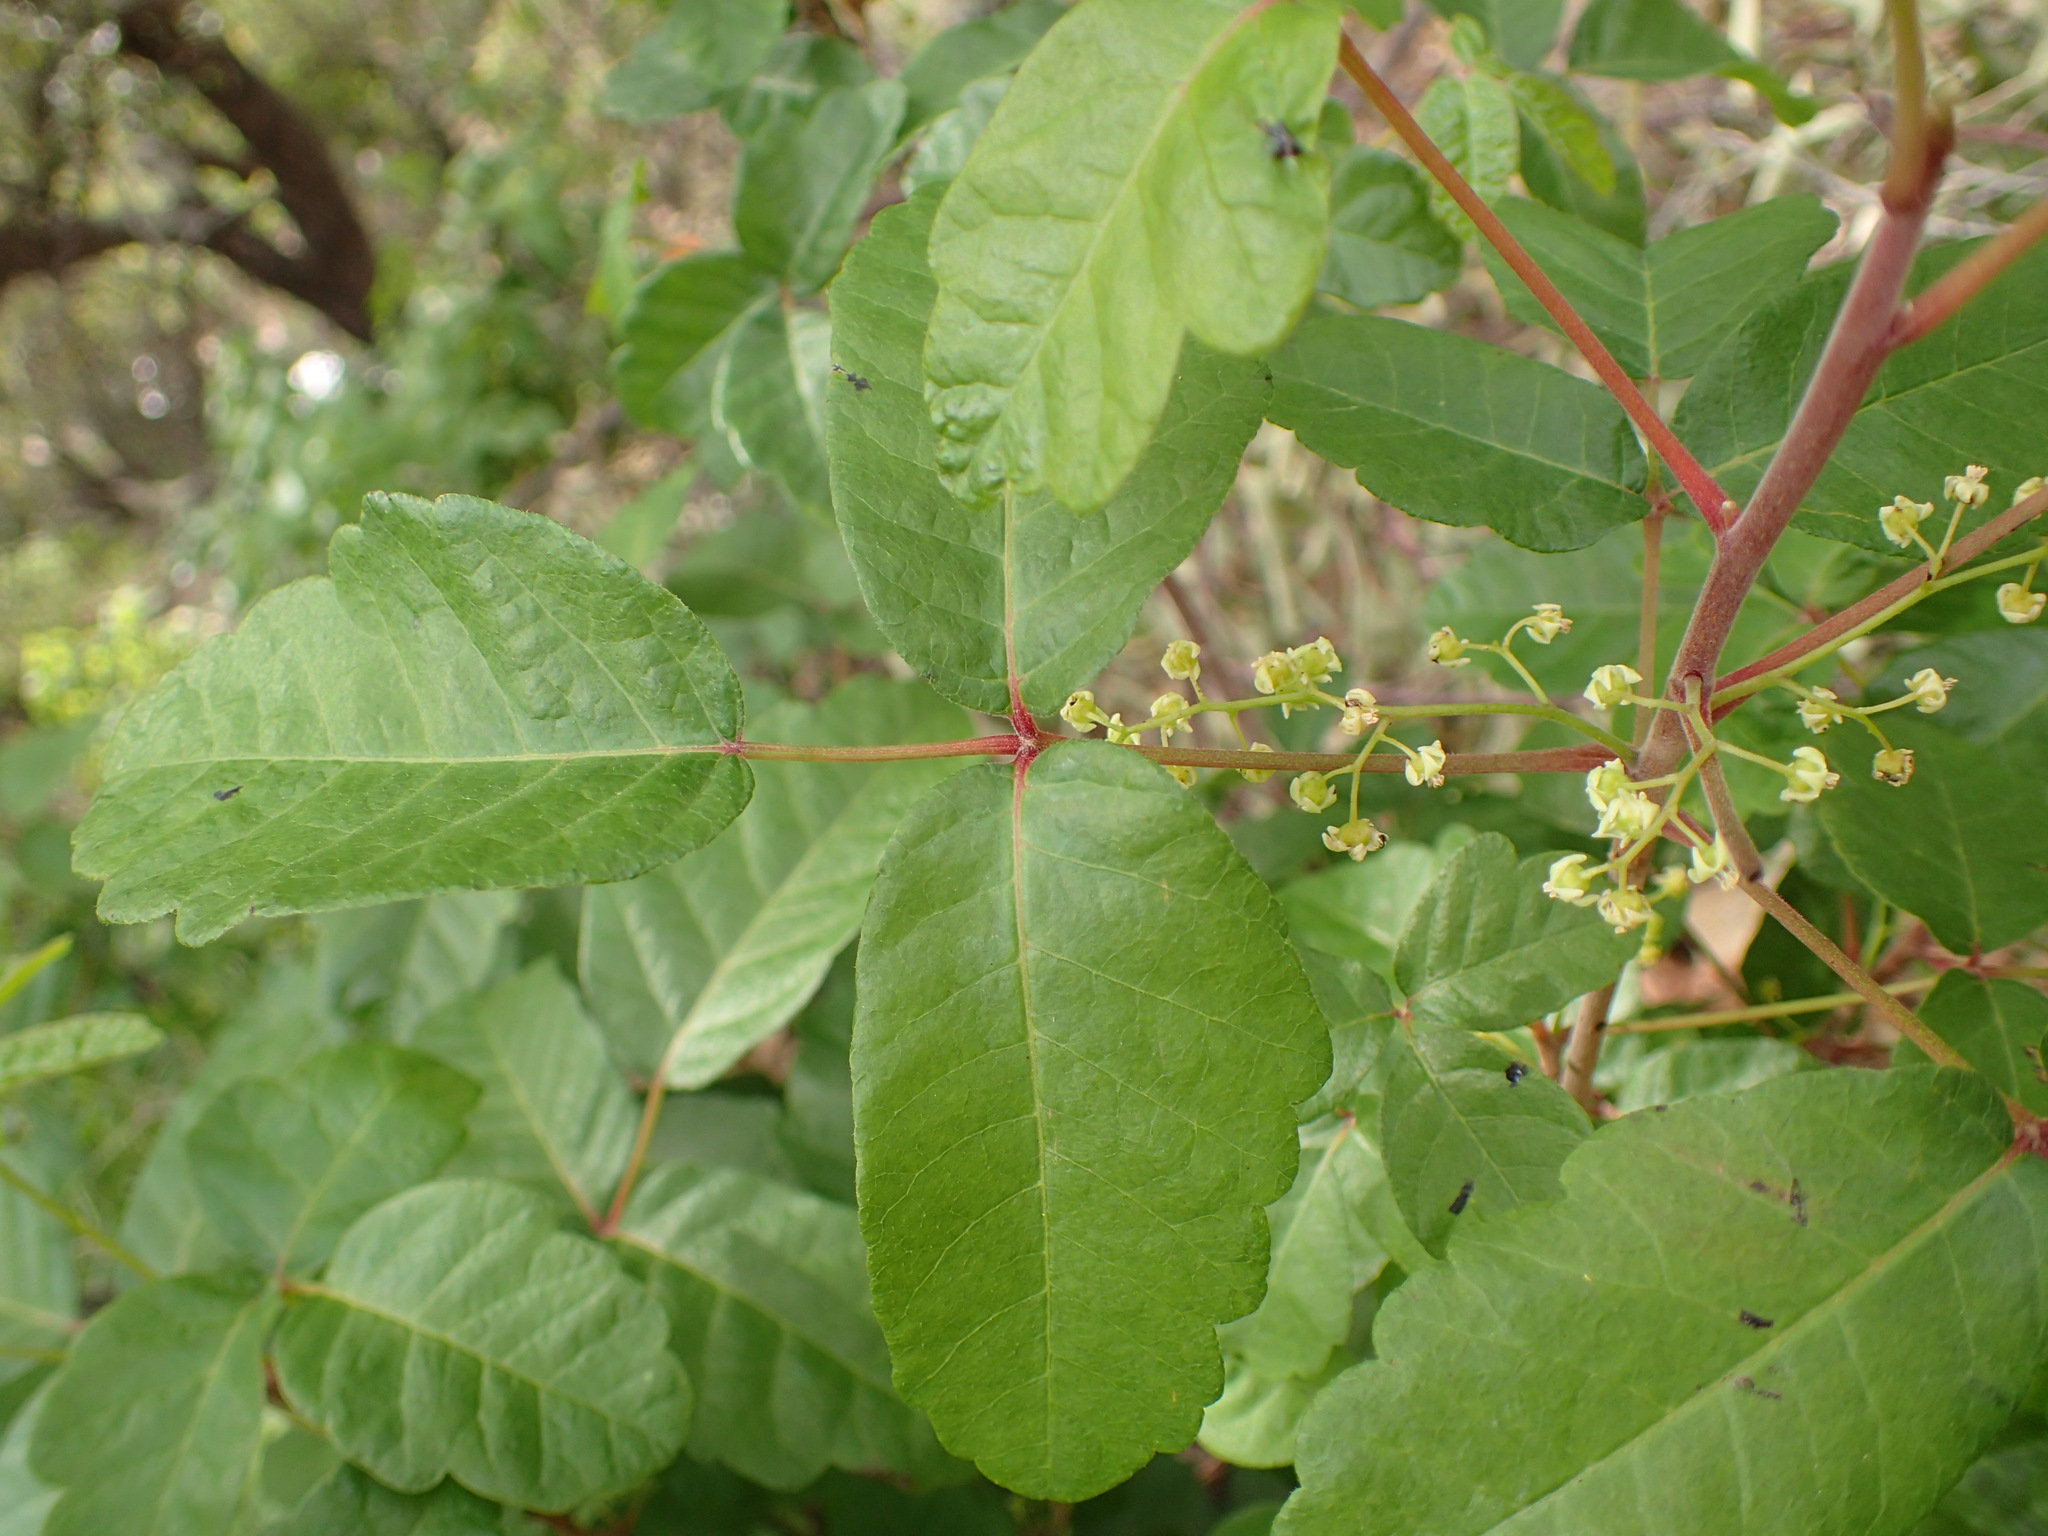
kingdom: Plantae
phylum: Tracheophyta
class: Magnoliopsida
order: Sapindales
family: Anacardiaceae
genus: Toxicodendron
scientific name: Toxicodendron diversilobum
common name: Pacific poison-oak
